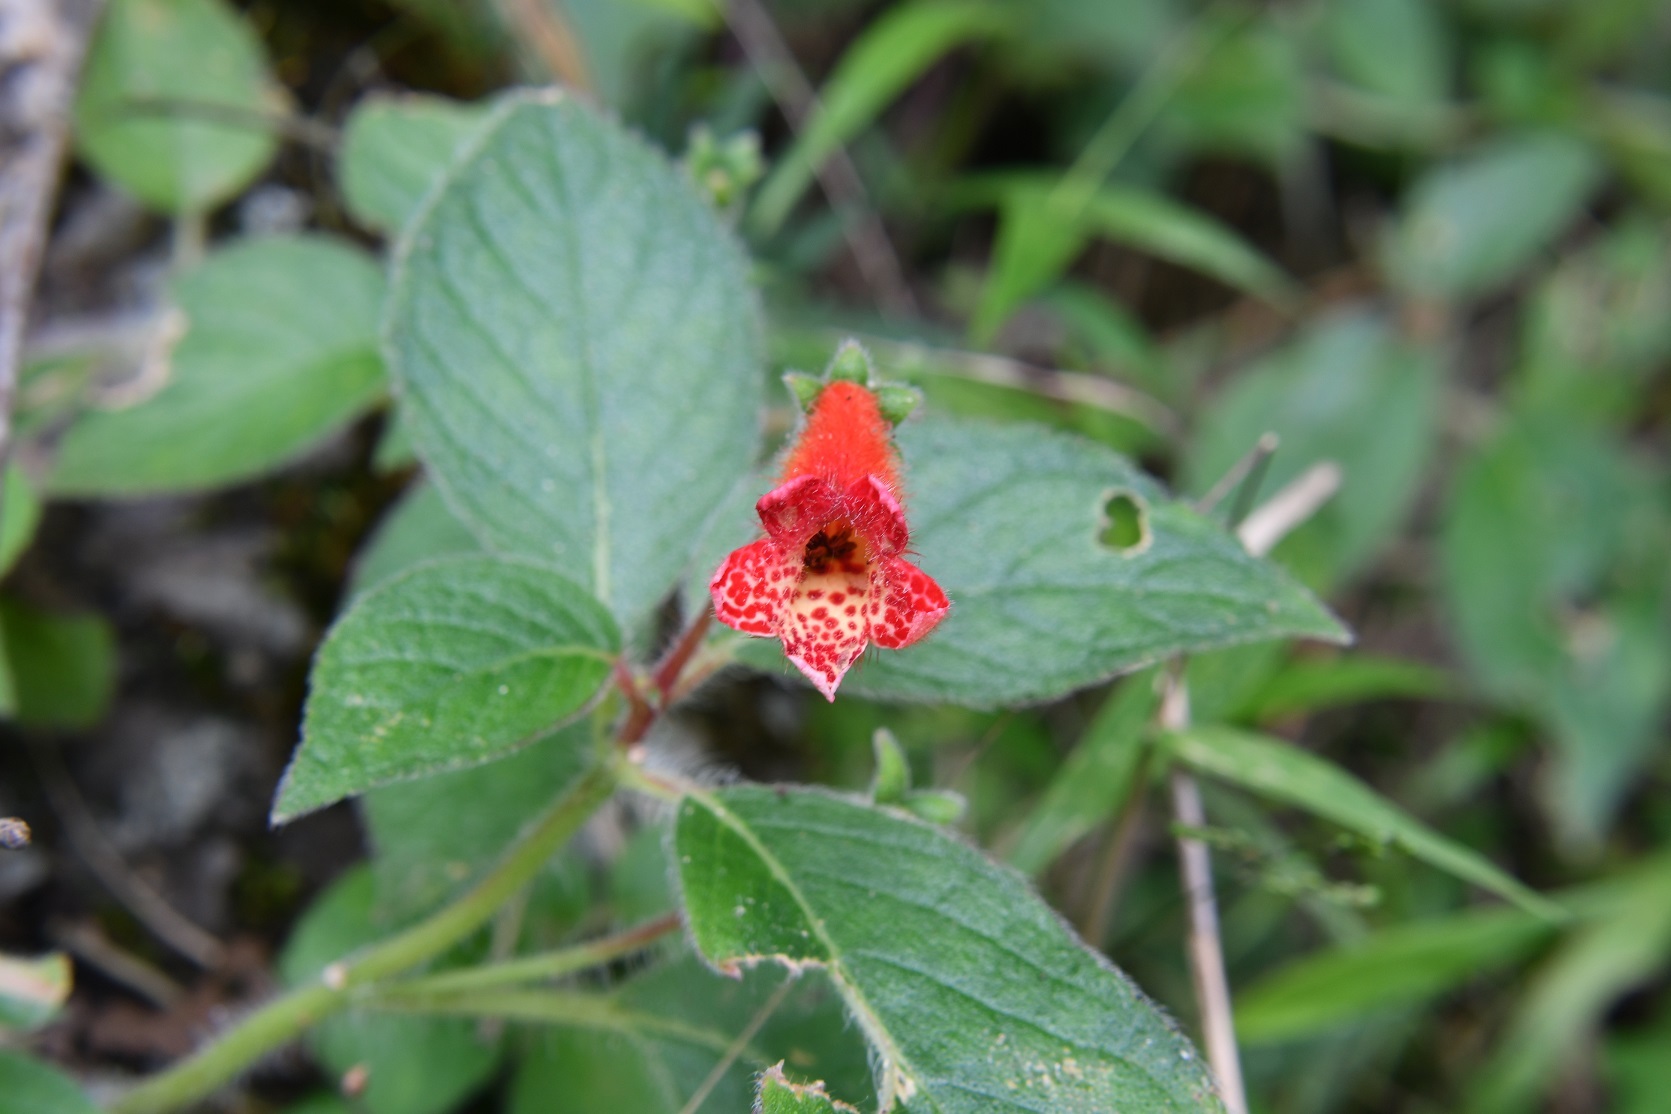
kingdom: Plantae
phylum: Tracheophyta
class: Magnoliopsida
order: Lamiales
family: Gesneriaceae
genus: Kohleria
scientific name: Kohleria rugata
